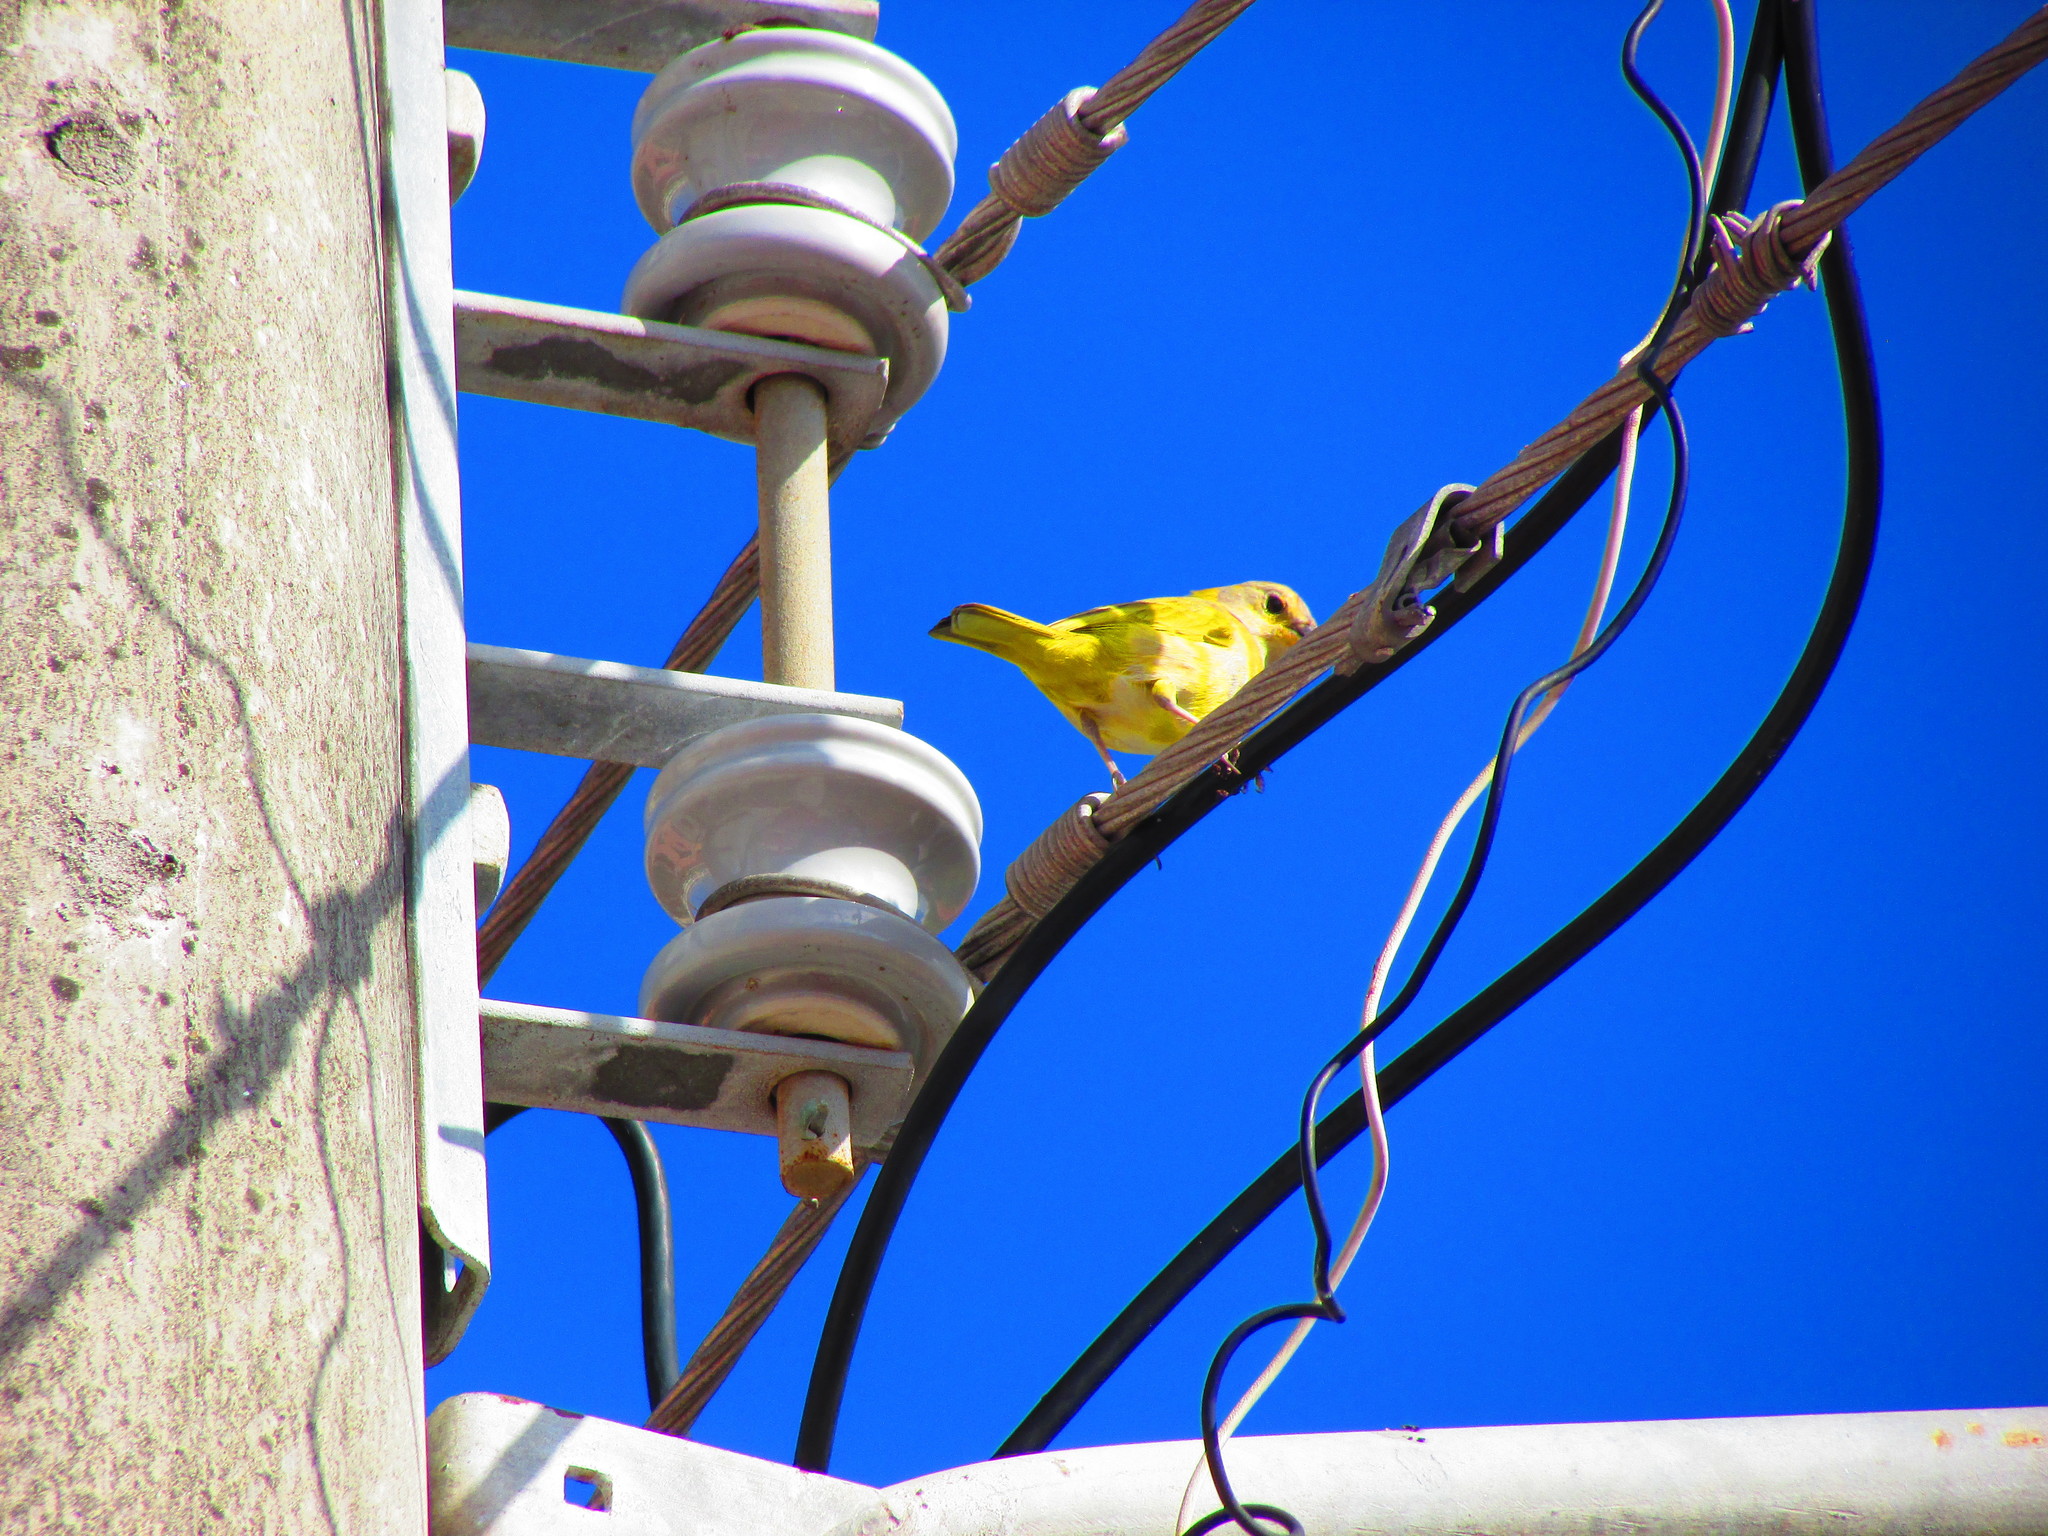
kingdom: Animalia
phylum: Chordata
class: Aves
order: Passeriformes
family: Thraupidae
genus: Sicalis
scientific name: Sicalis flaveola
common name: Saffron finch
